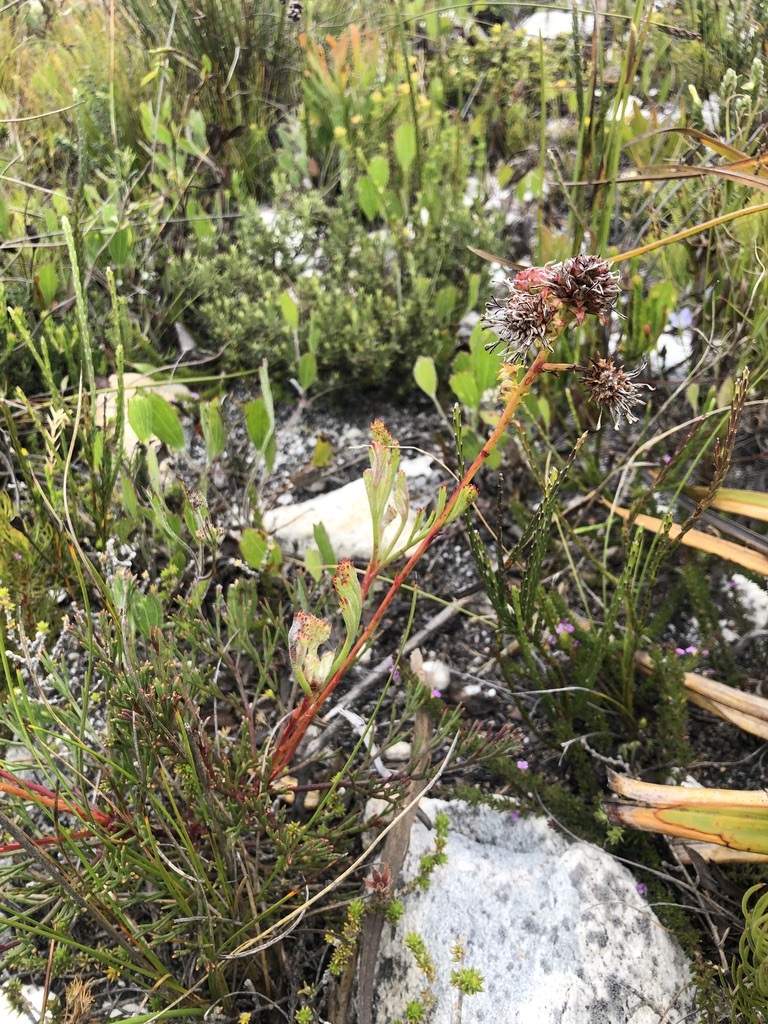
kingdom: Plantae
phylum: Tracheophyta
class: Magnoliopsida
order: Proteales
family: Proteaceae
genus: Serruria
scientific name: Serruria elongata
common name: Long-stalk spiderhead
